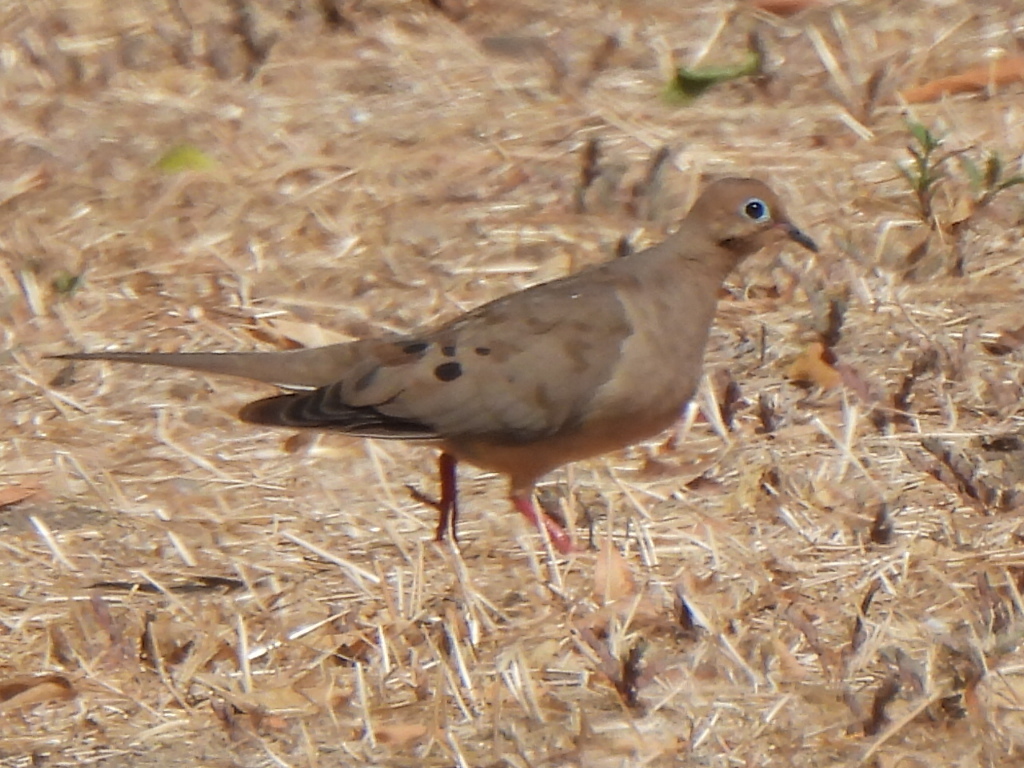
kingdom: Animalia
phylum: Chordata
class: Aves
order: Columbiformes
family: Columbidae
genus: Zenaida
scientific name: Zenaida macroura
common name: Mourning dove
